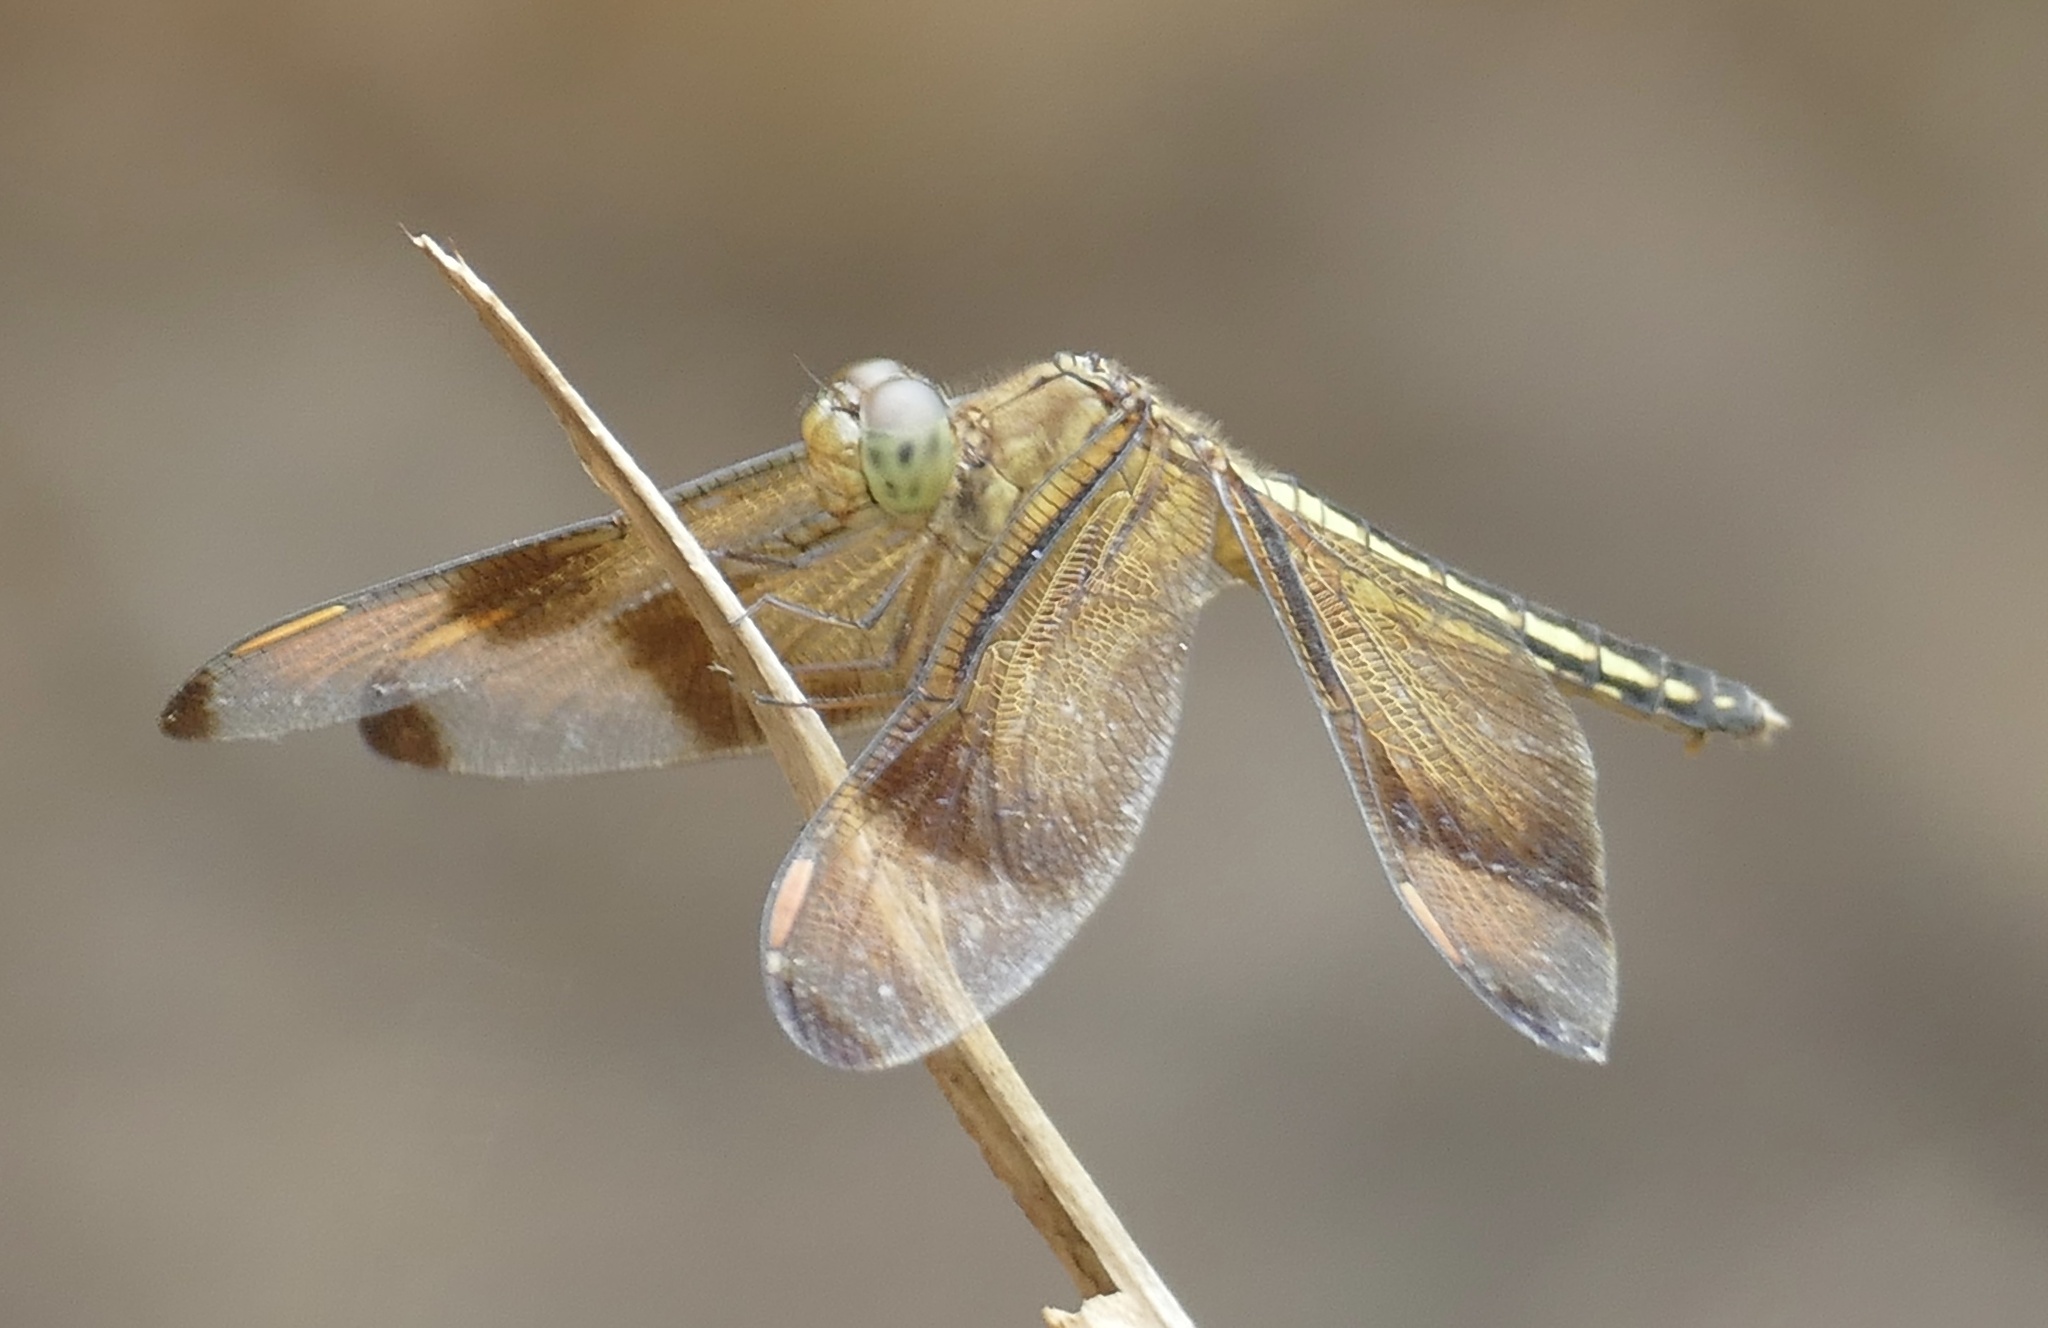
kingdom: Animalia
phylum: Arthropoda
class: Insecta
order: Odonata
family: Libellulidae
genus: Neurothemis
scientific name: Neurothemis manadensis
